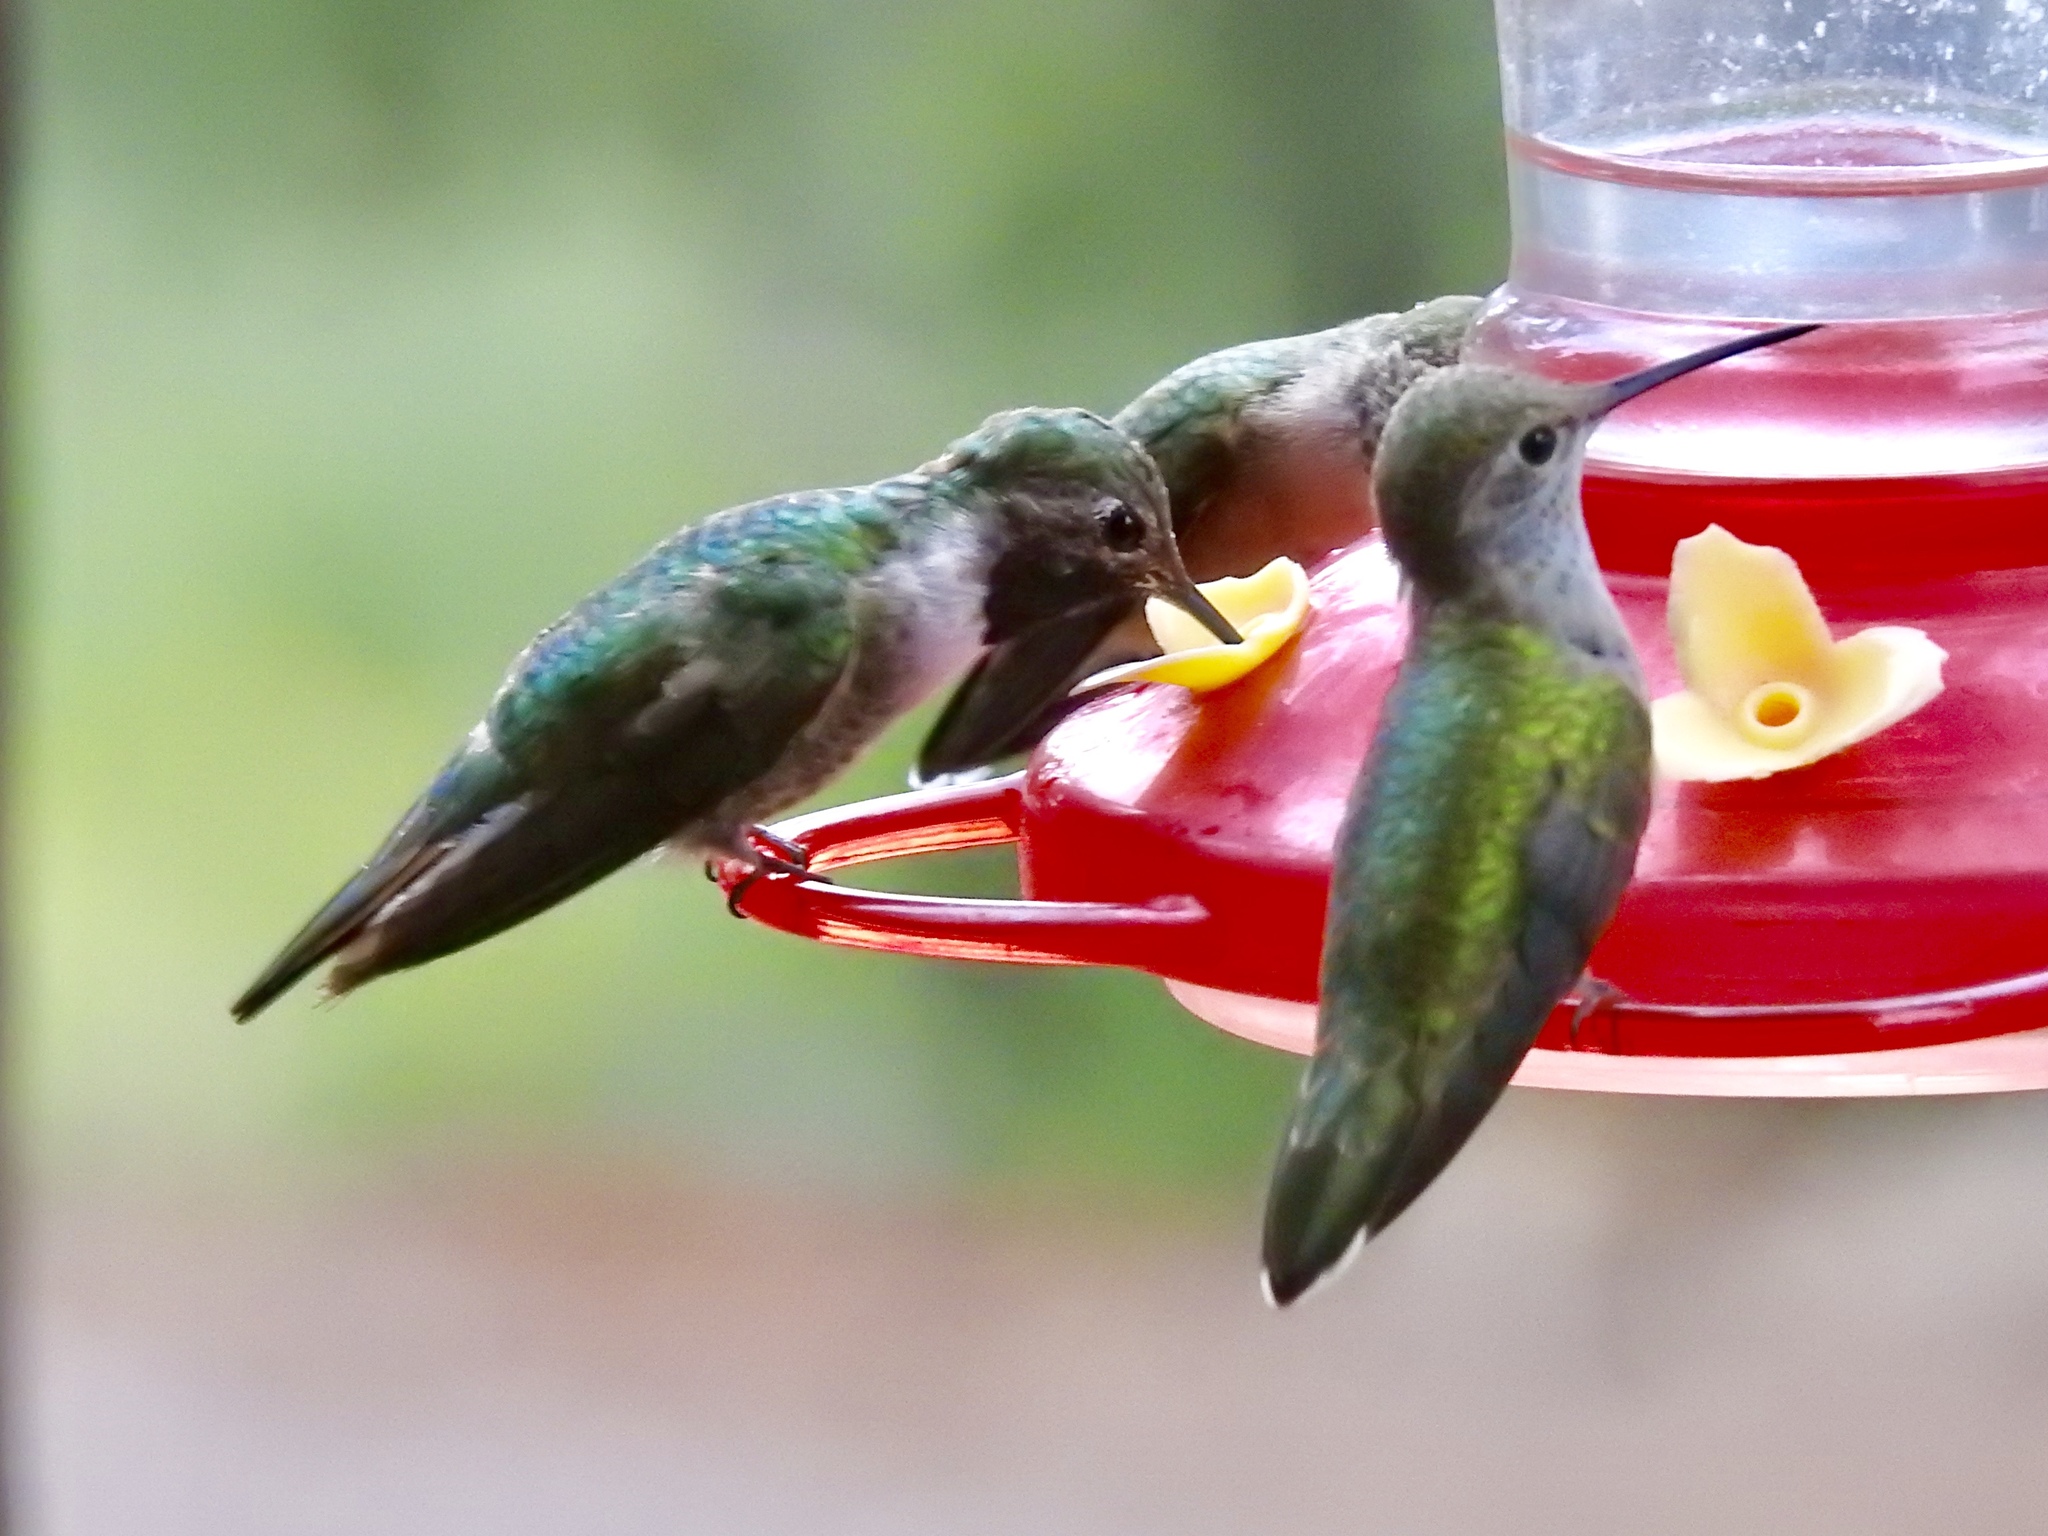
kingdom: Animalia
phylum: Chordata
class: Aves
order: Apodiformes
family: Trochilidae
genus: Archilochus
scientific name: Archilochus alexandri
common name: Black-chinned hummingbird
